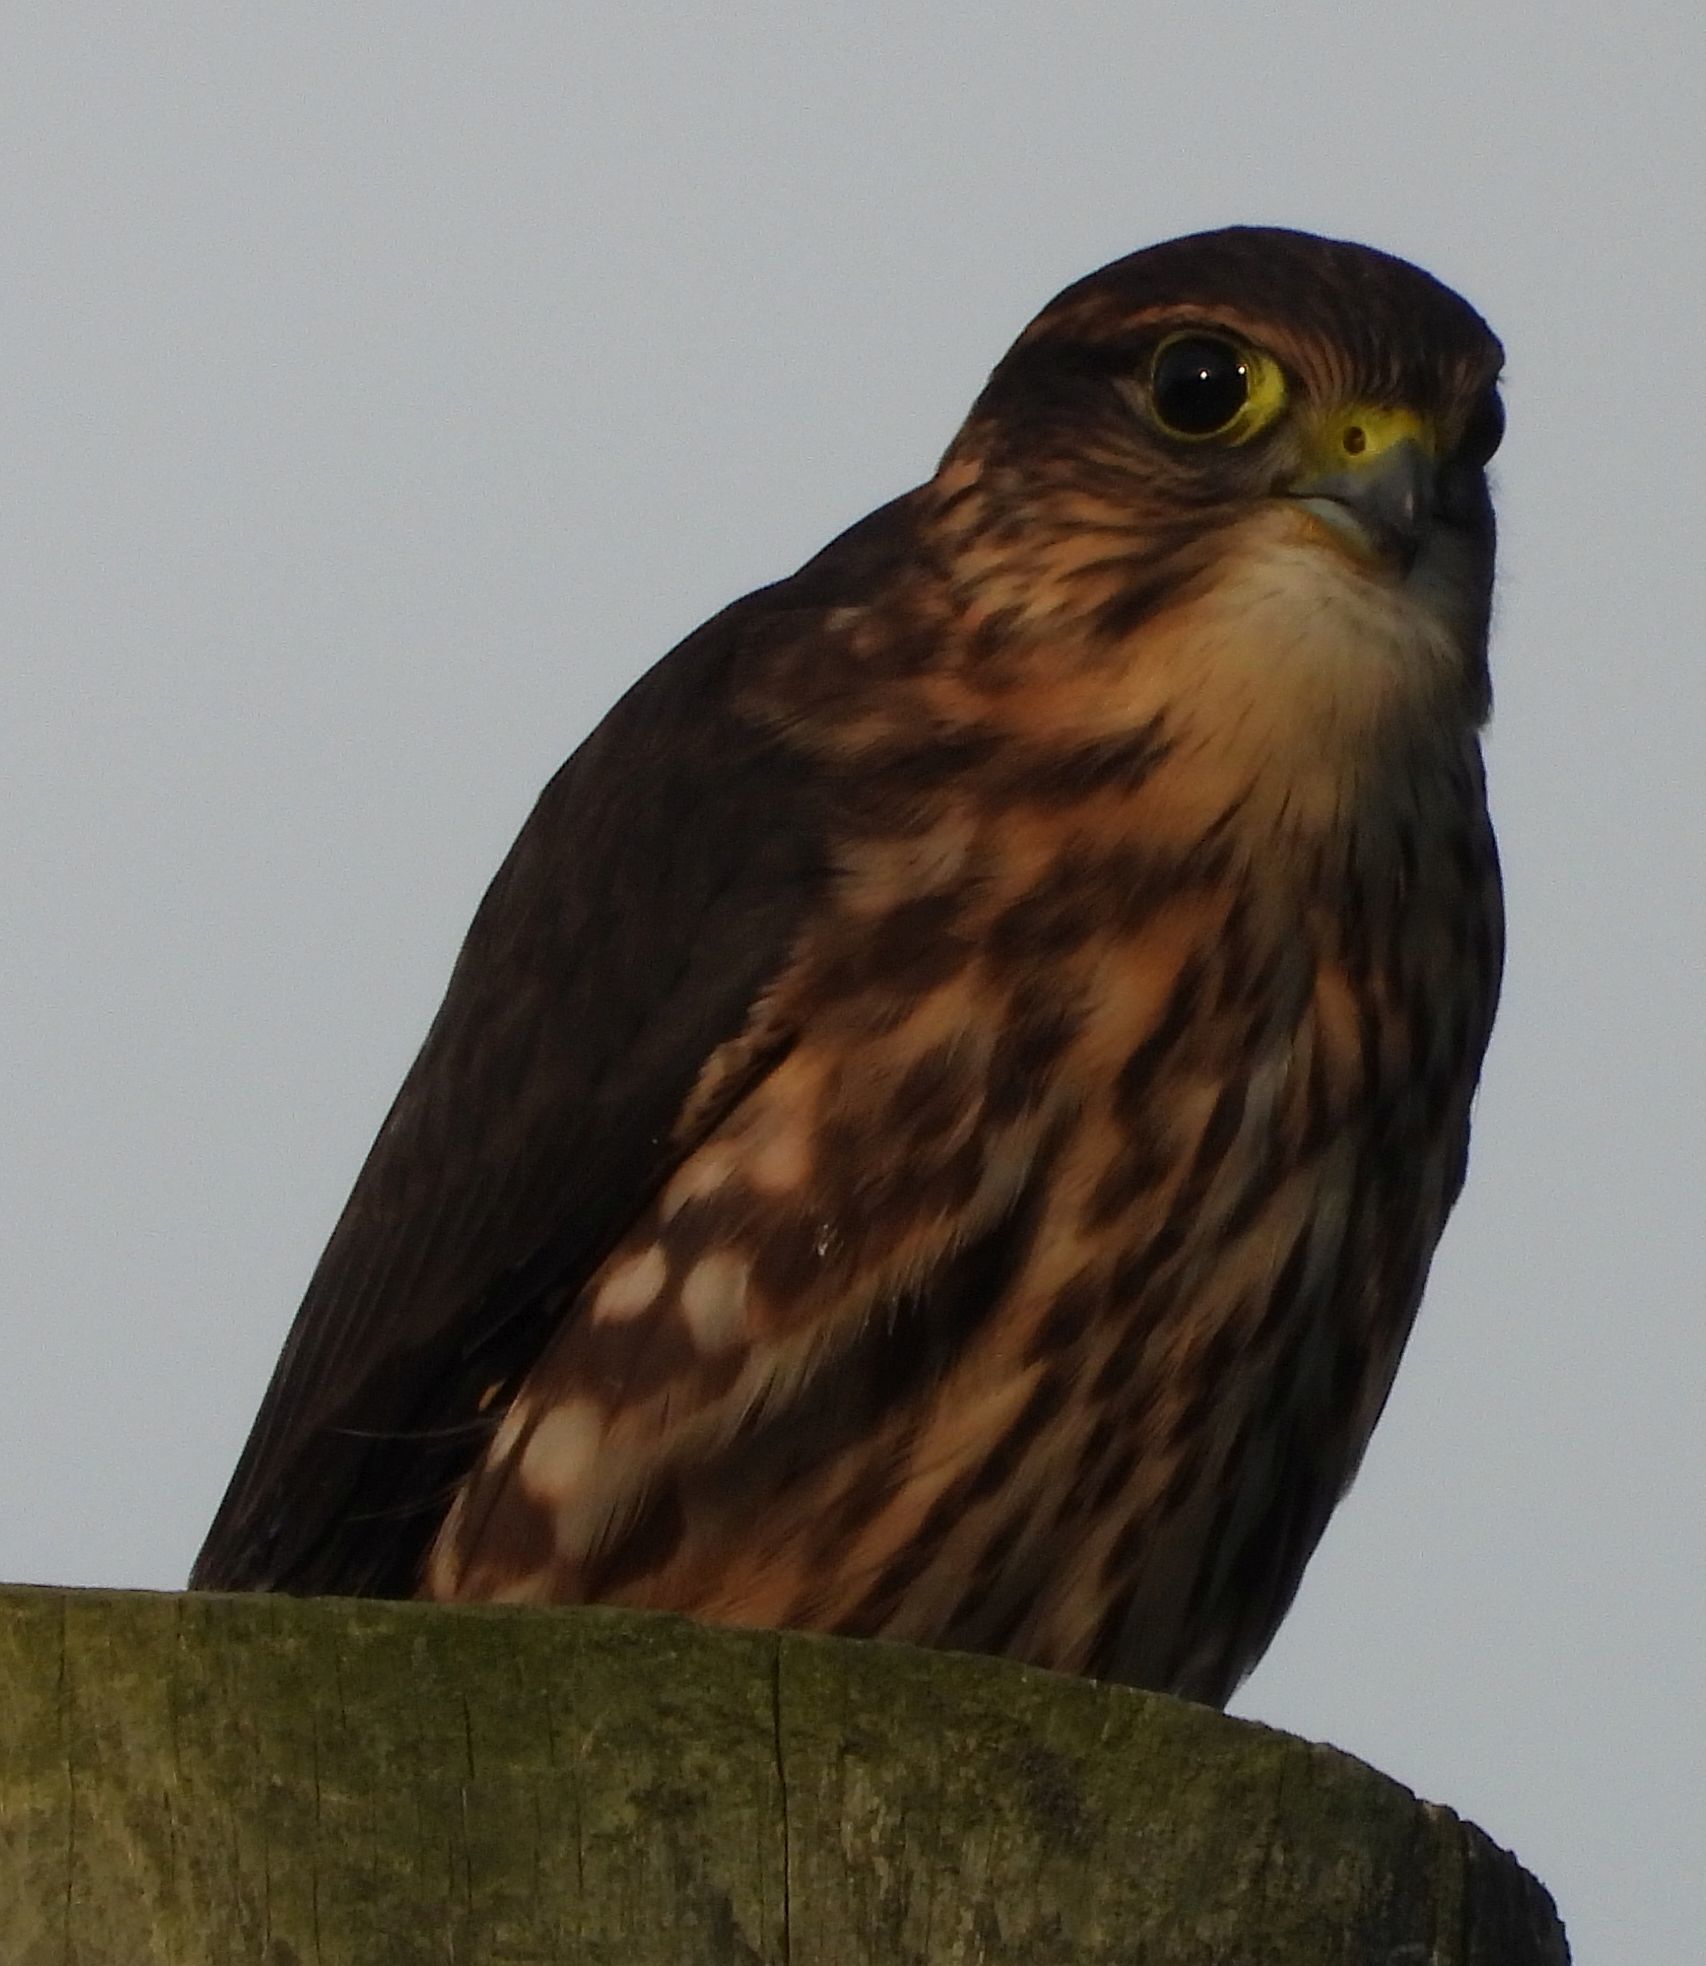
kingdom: Animalia
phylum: Chordata
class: Aves
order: Falconiformes
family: Falconidae
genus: Falco
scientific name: Falco columbarius
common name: Merlin
